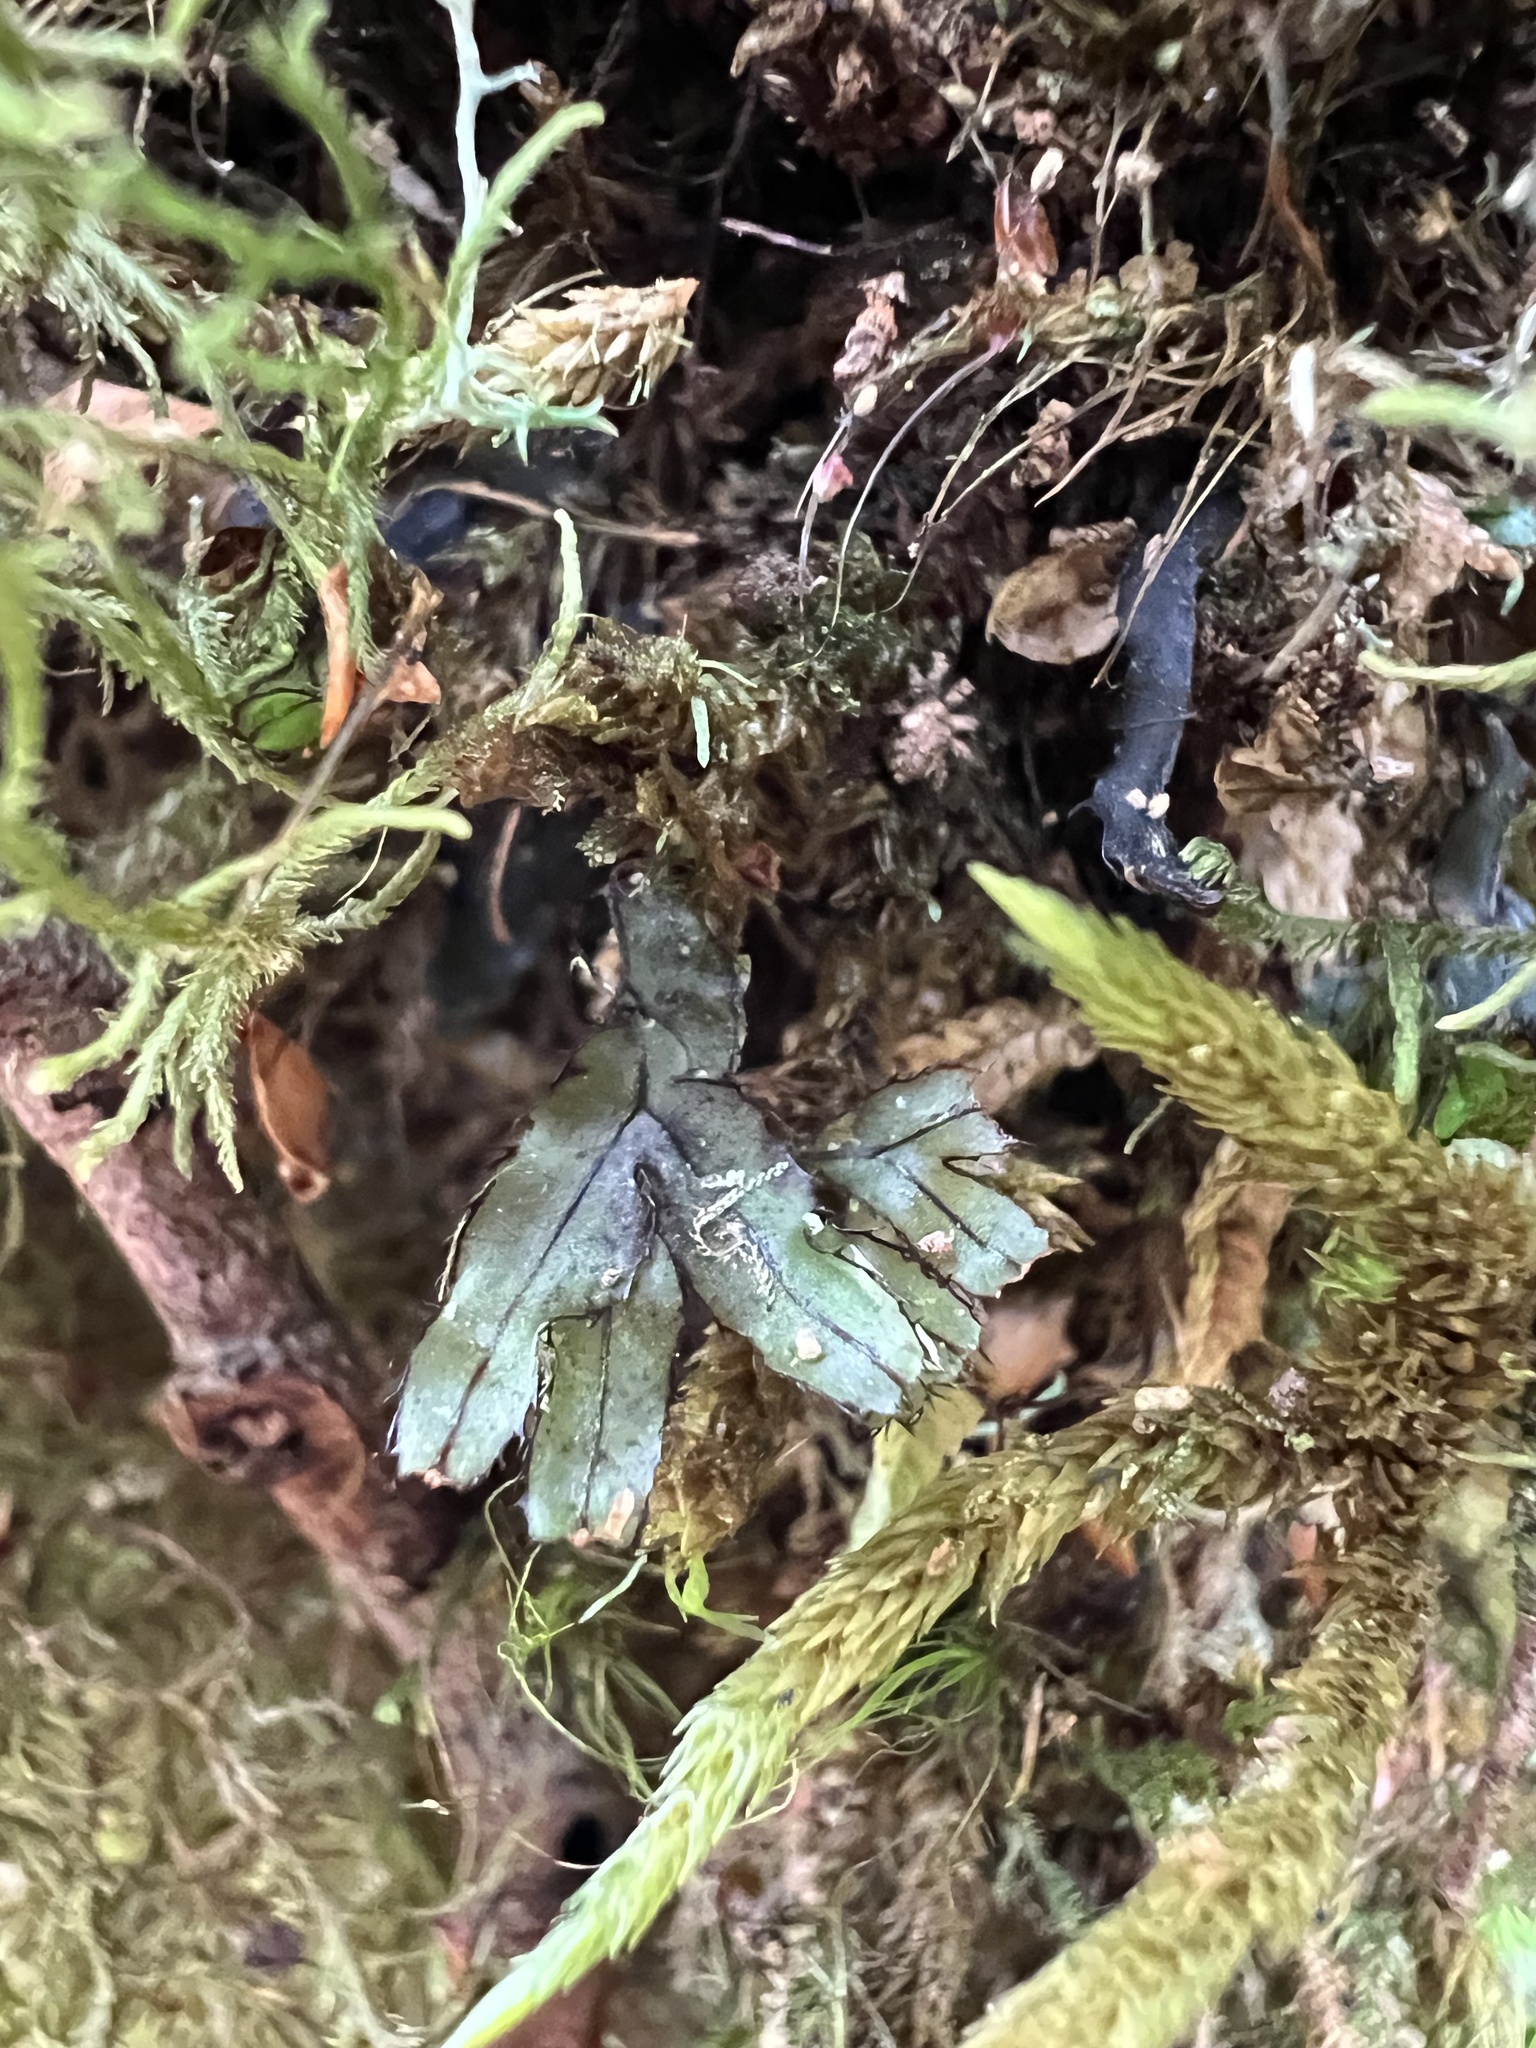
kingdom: Plantae
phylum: Tracheophyta
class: Polypodiopsida
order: Hymenophyllales
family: Hymenophyllaceae
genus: Hymenophyllum
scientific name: Hymenophyllum armstrongii
